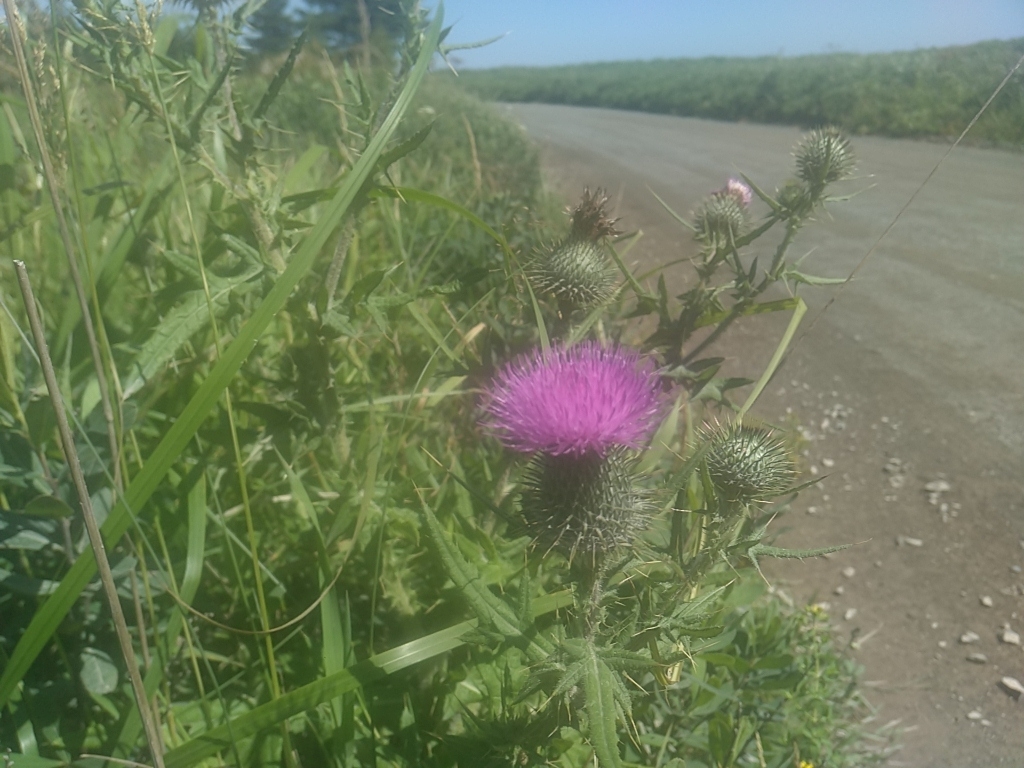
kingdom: Plantae
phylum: Tracheophyta
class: Magnoliopsida
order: Asterales
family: Asteraceae
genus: Cirsium
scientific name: Cirsium vulgare
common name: Bull thistle
